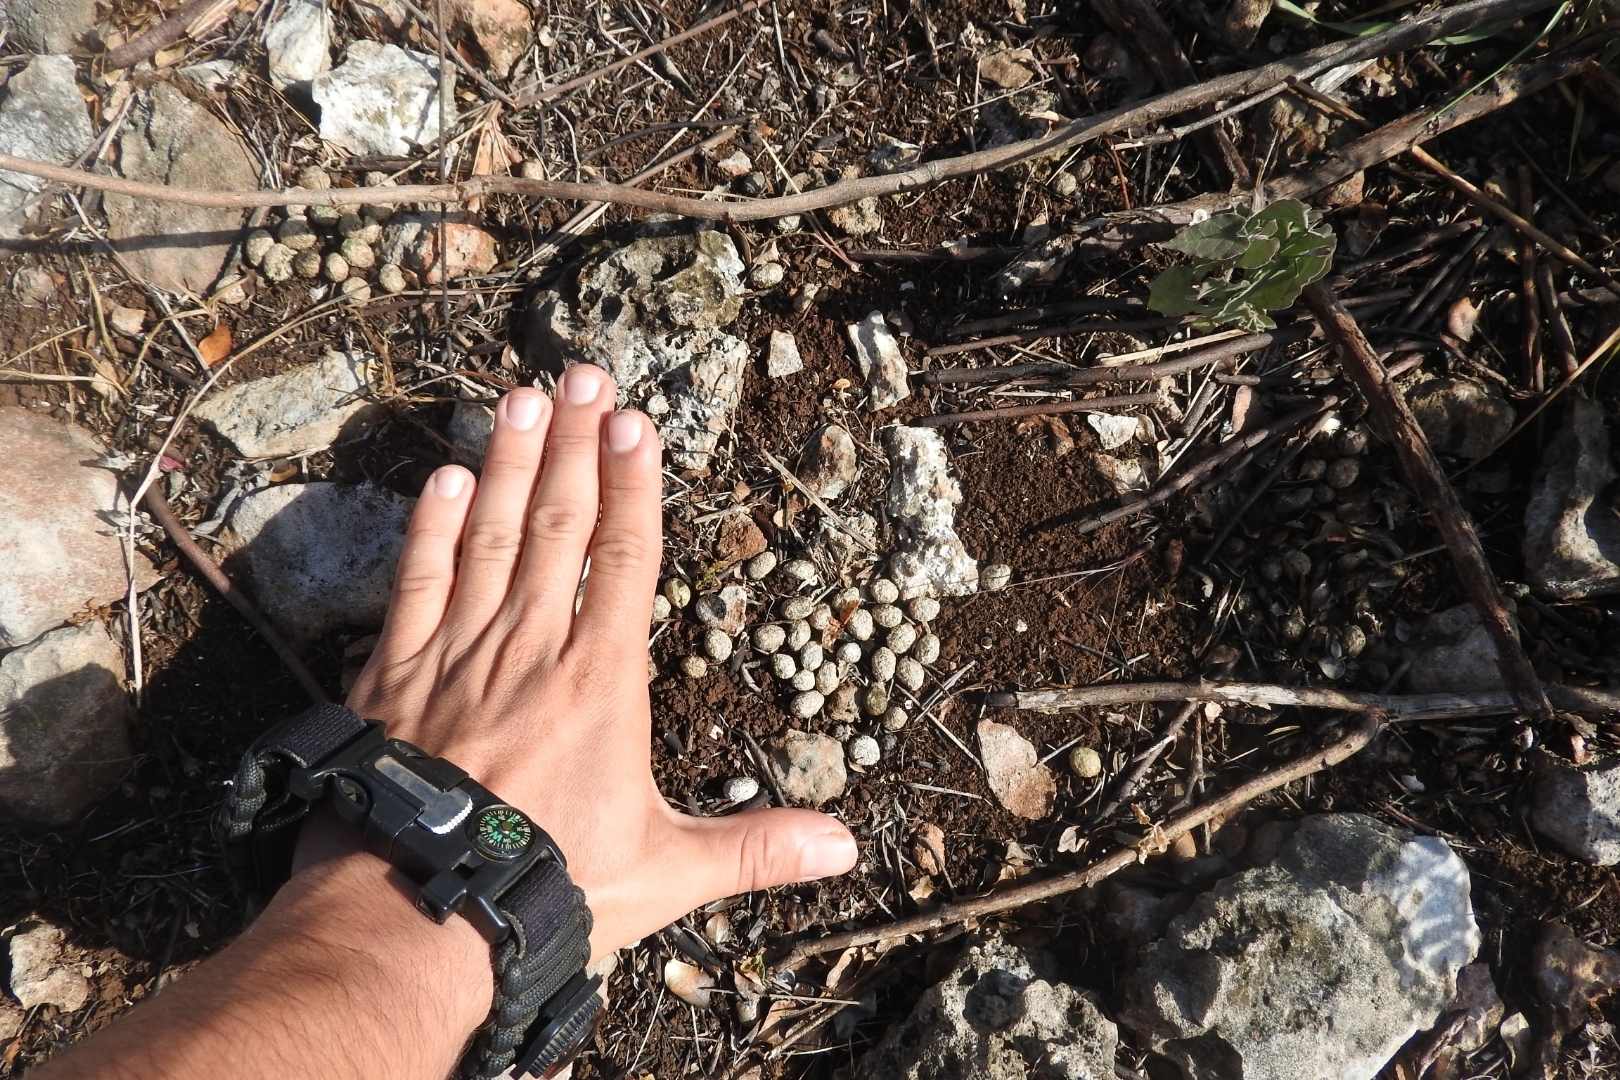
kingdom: Animalia
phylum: Chordata
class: Mammalia
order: Lagomorpha
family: Leporidae
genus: Sylvilagus
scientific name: Sylvilagus floridanus
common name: Eastern cottontail
